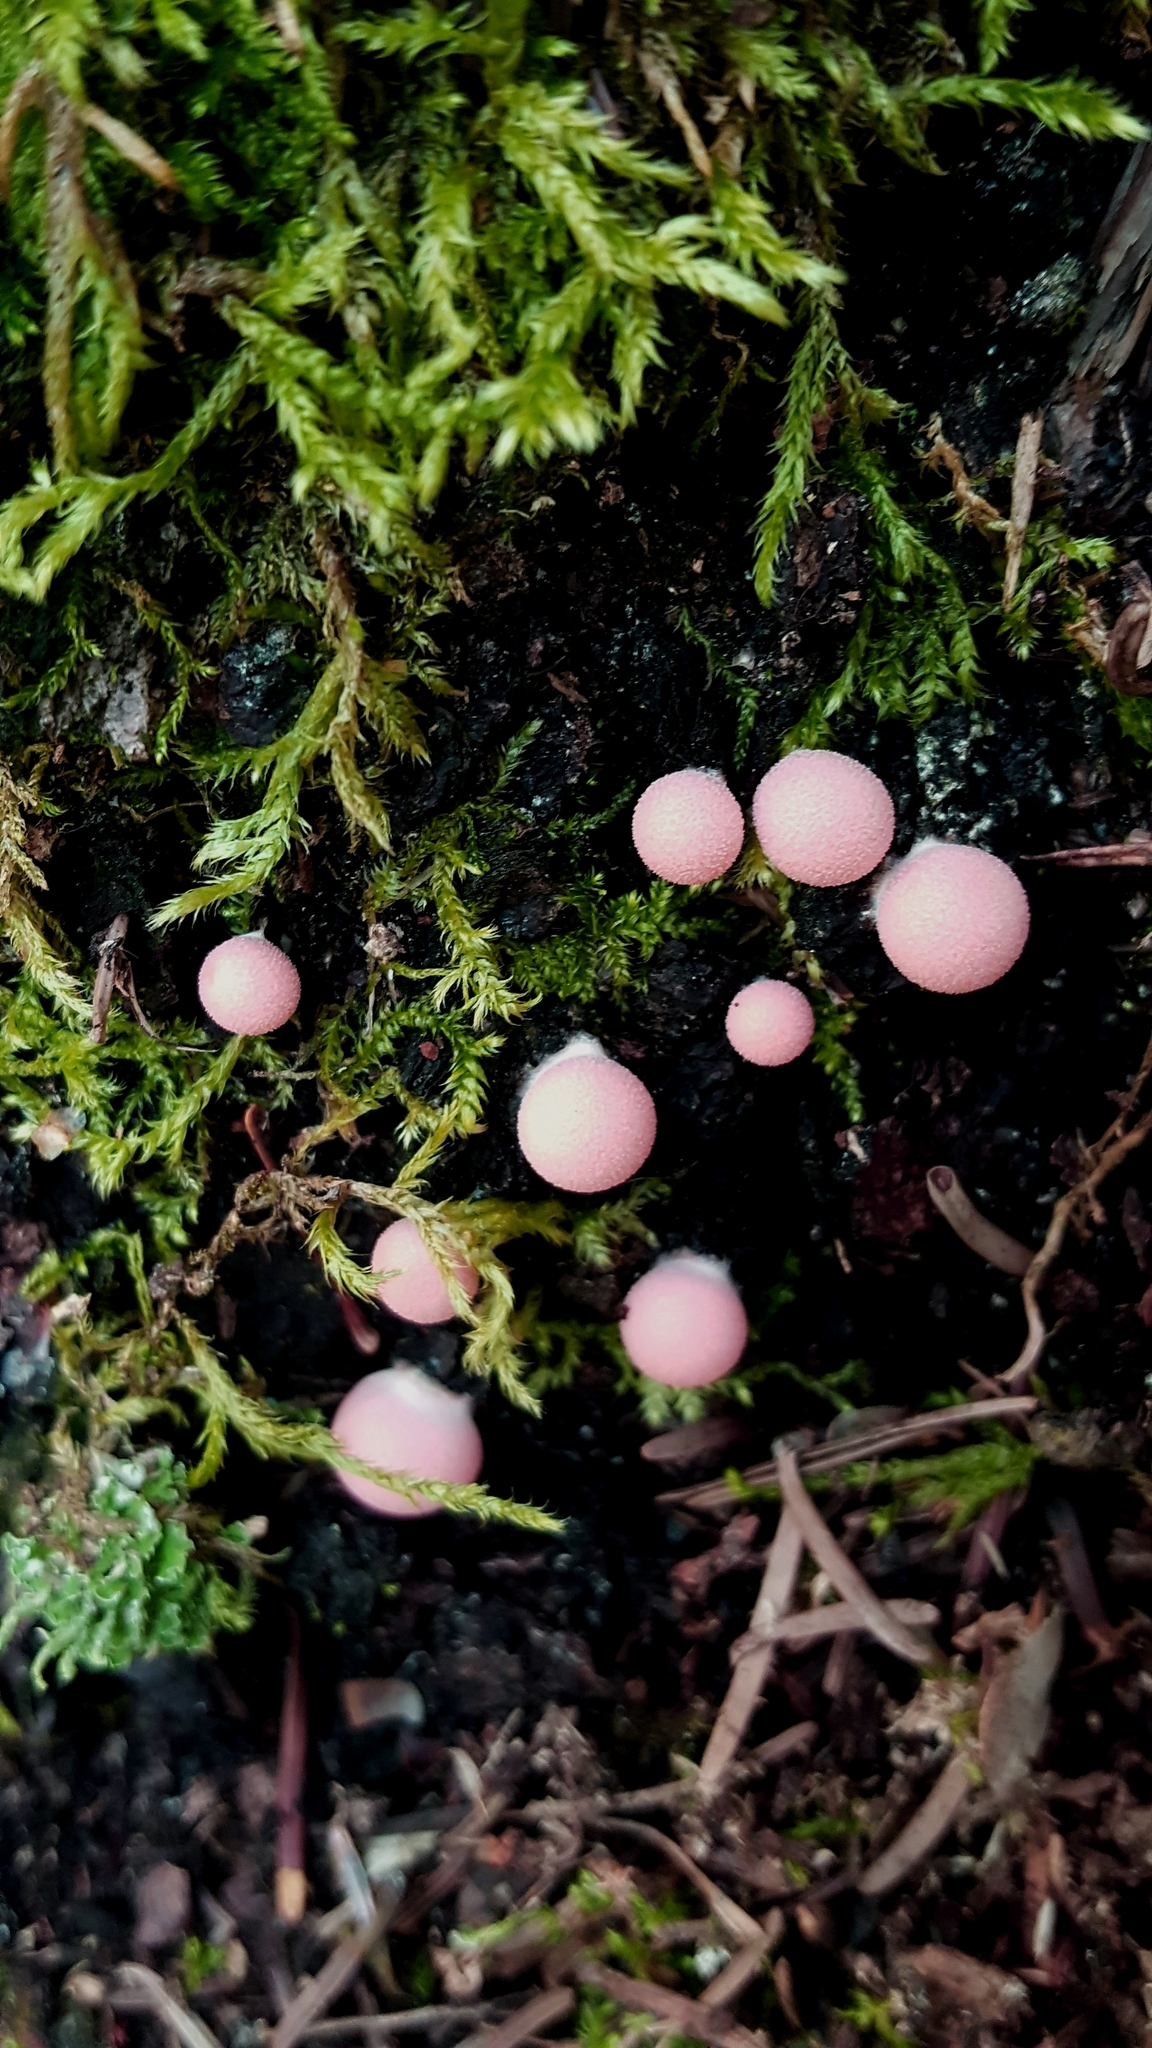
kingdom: Protozoa
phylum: Mycetozoa
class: Myxomycetes
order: Cribrariales
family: Tubiferaceae
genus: Lycogala
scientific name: Lycogala epidendrum
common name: Wolf's milk
